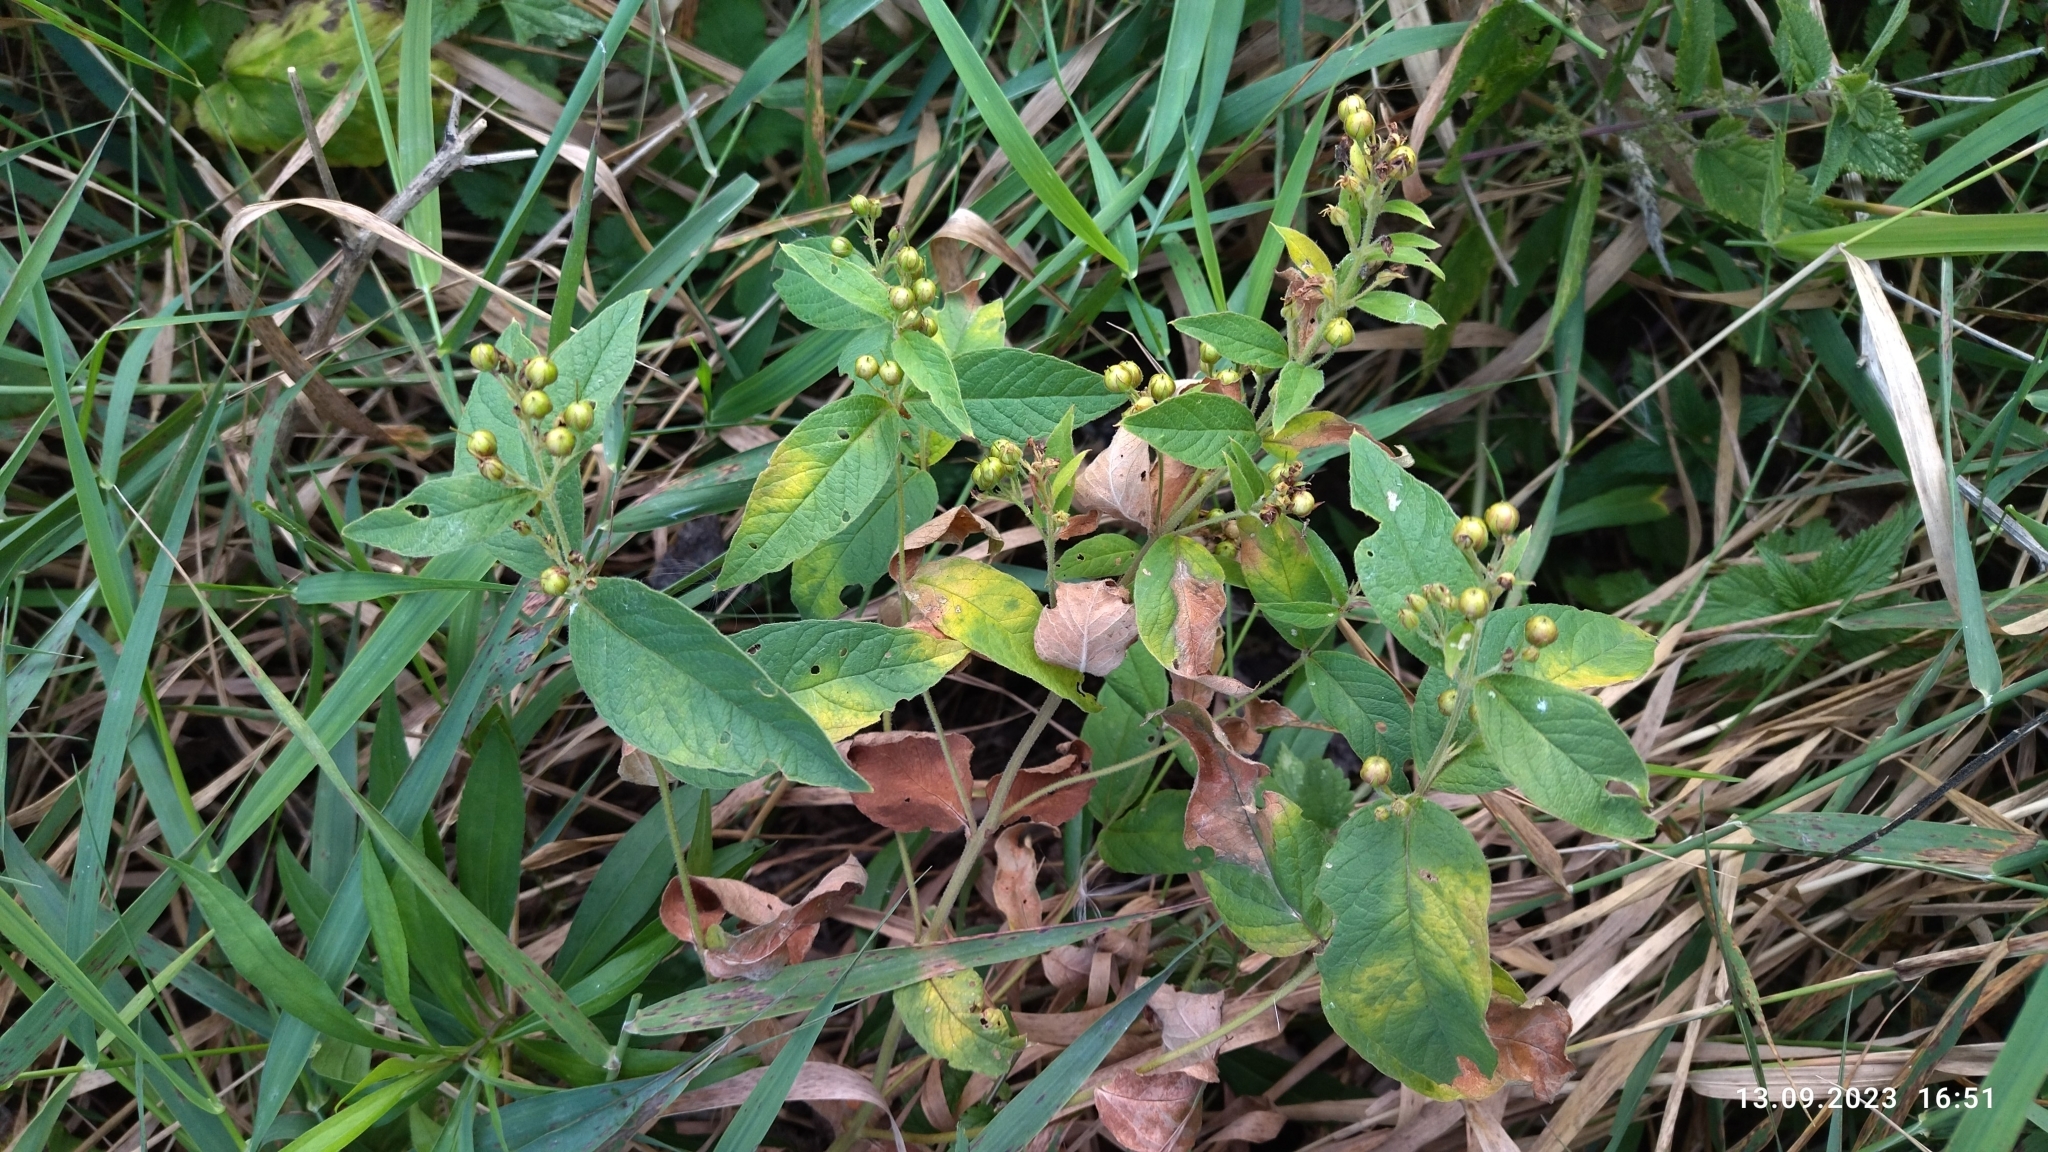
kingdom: Plantae
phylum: Tracheophyta
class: Magnoliopsida
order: Ericales
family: Primulaceae
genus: Lysimachia
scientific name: Lysimachia vulgaris
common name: Yellow loosestrife
